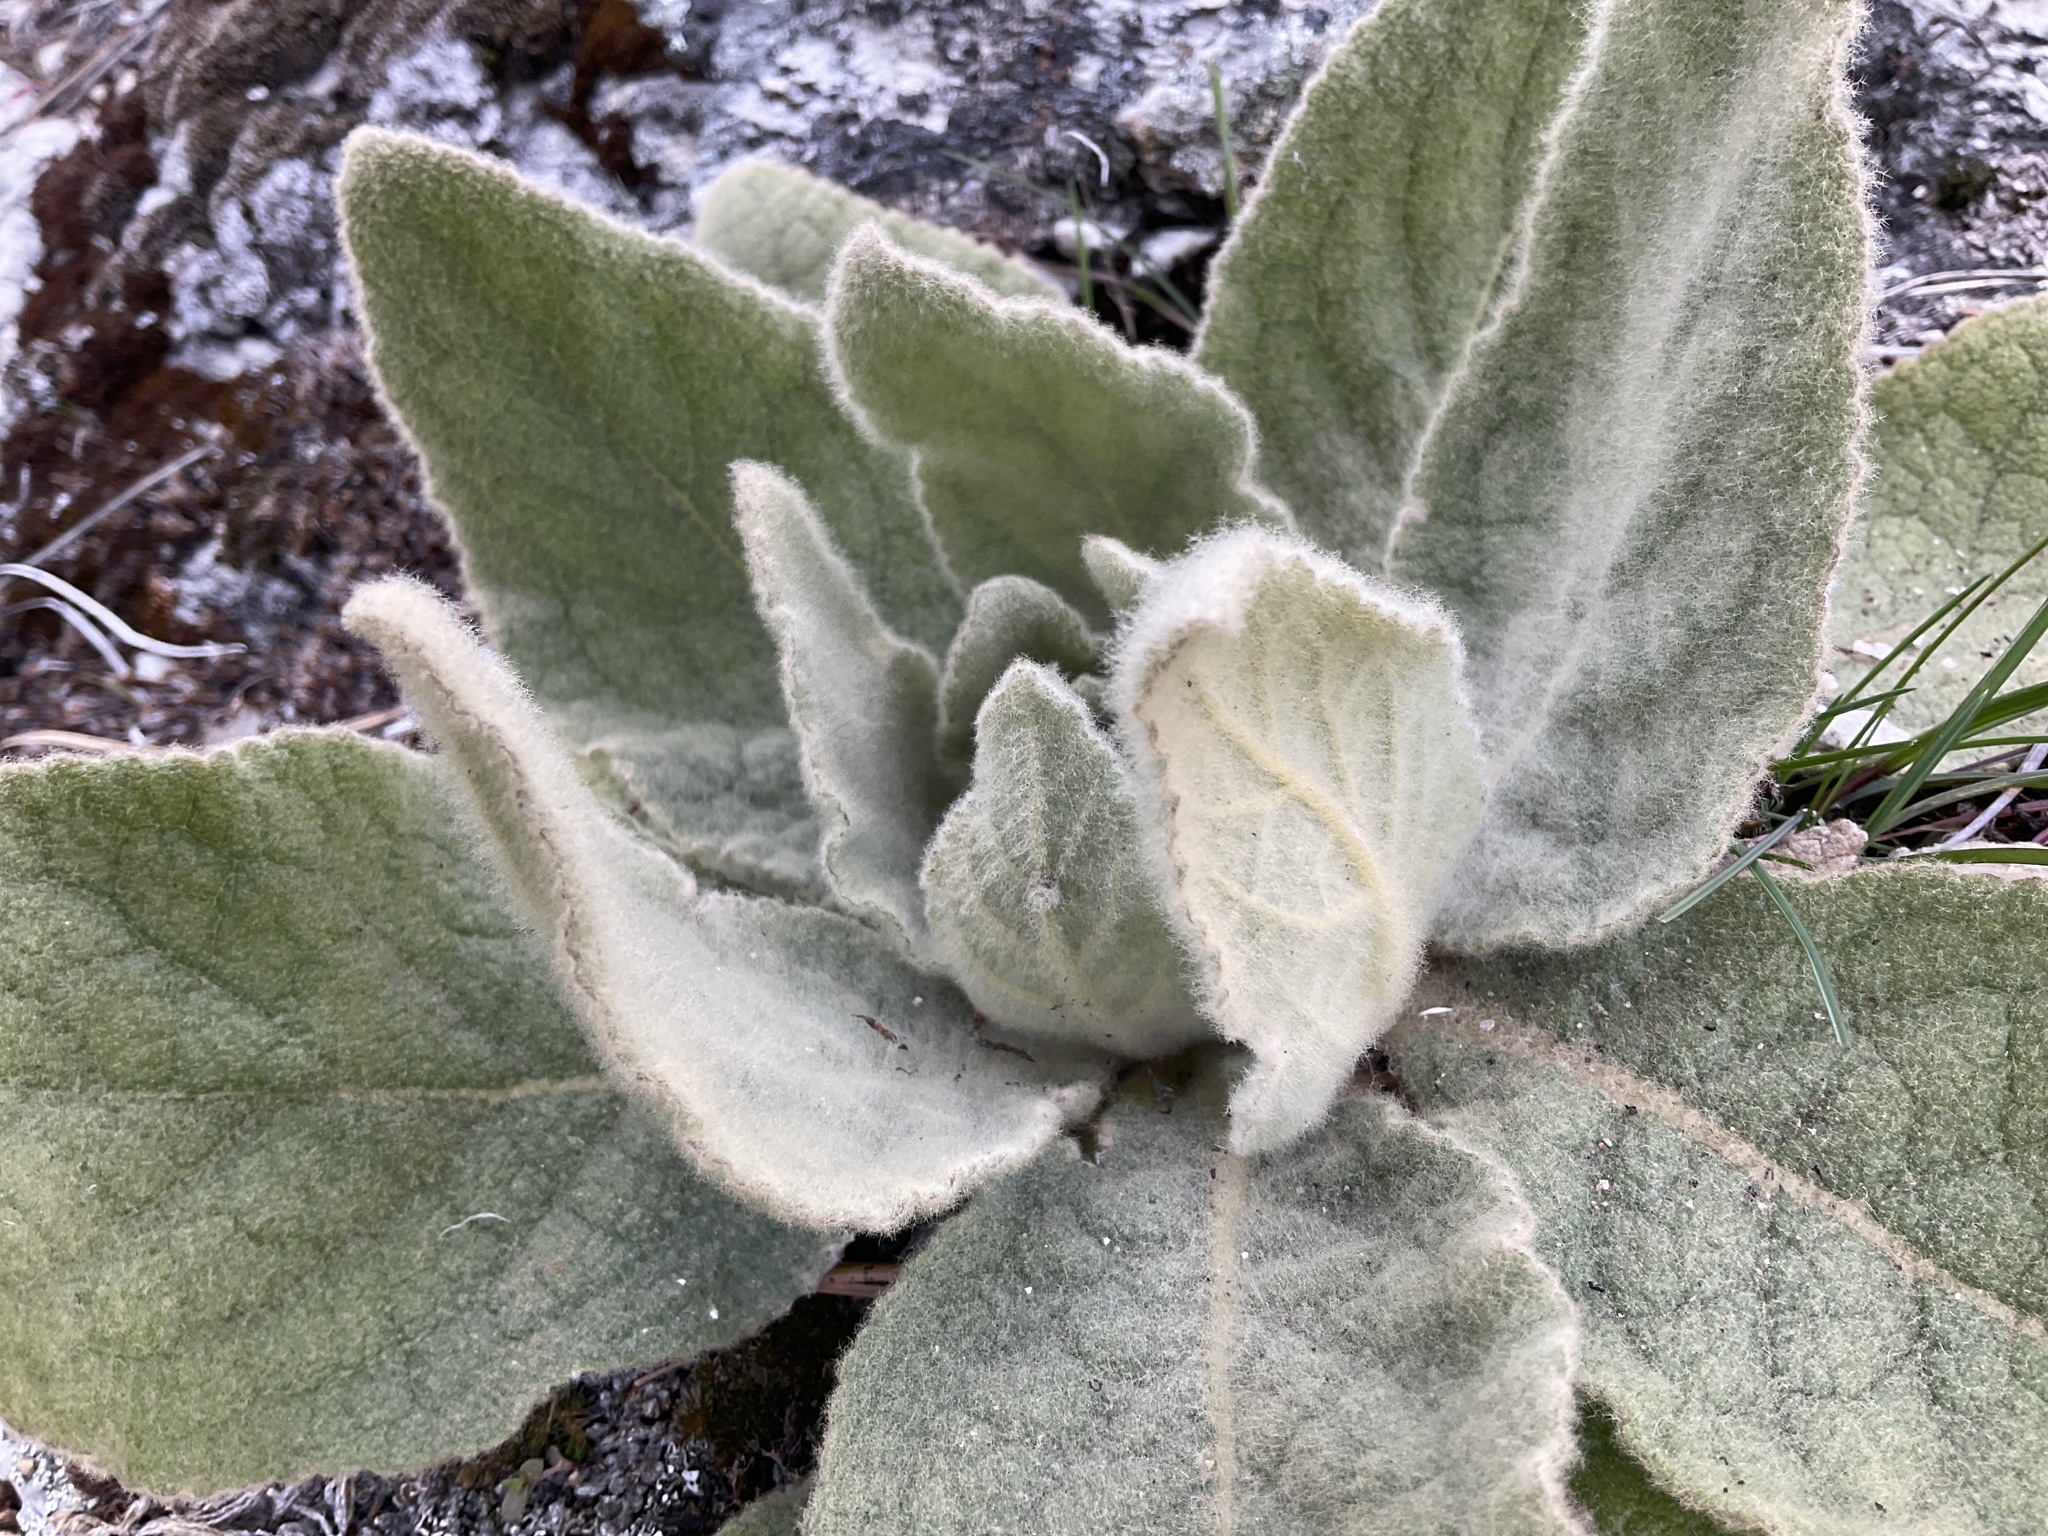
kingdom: Plantae
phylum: Tracheophyta
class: Magnoliopsida
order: Lamiales
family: Scrophulariaceae
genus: Verbascum
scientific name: Verbascum thapsus
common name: Common mullein
